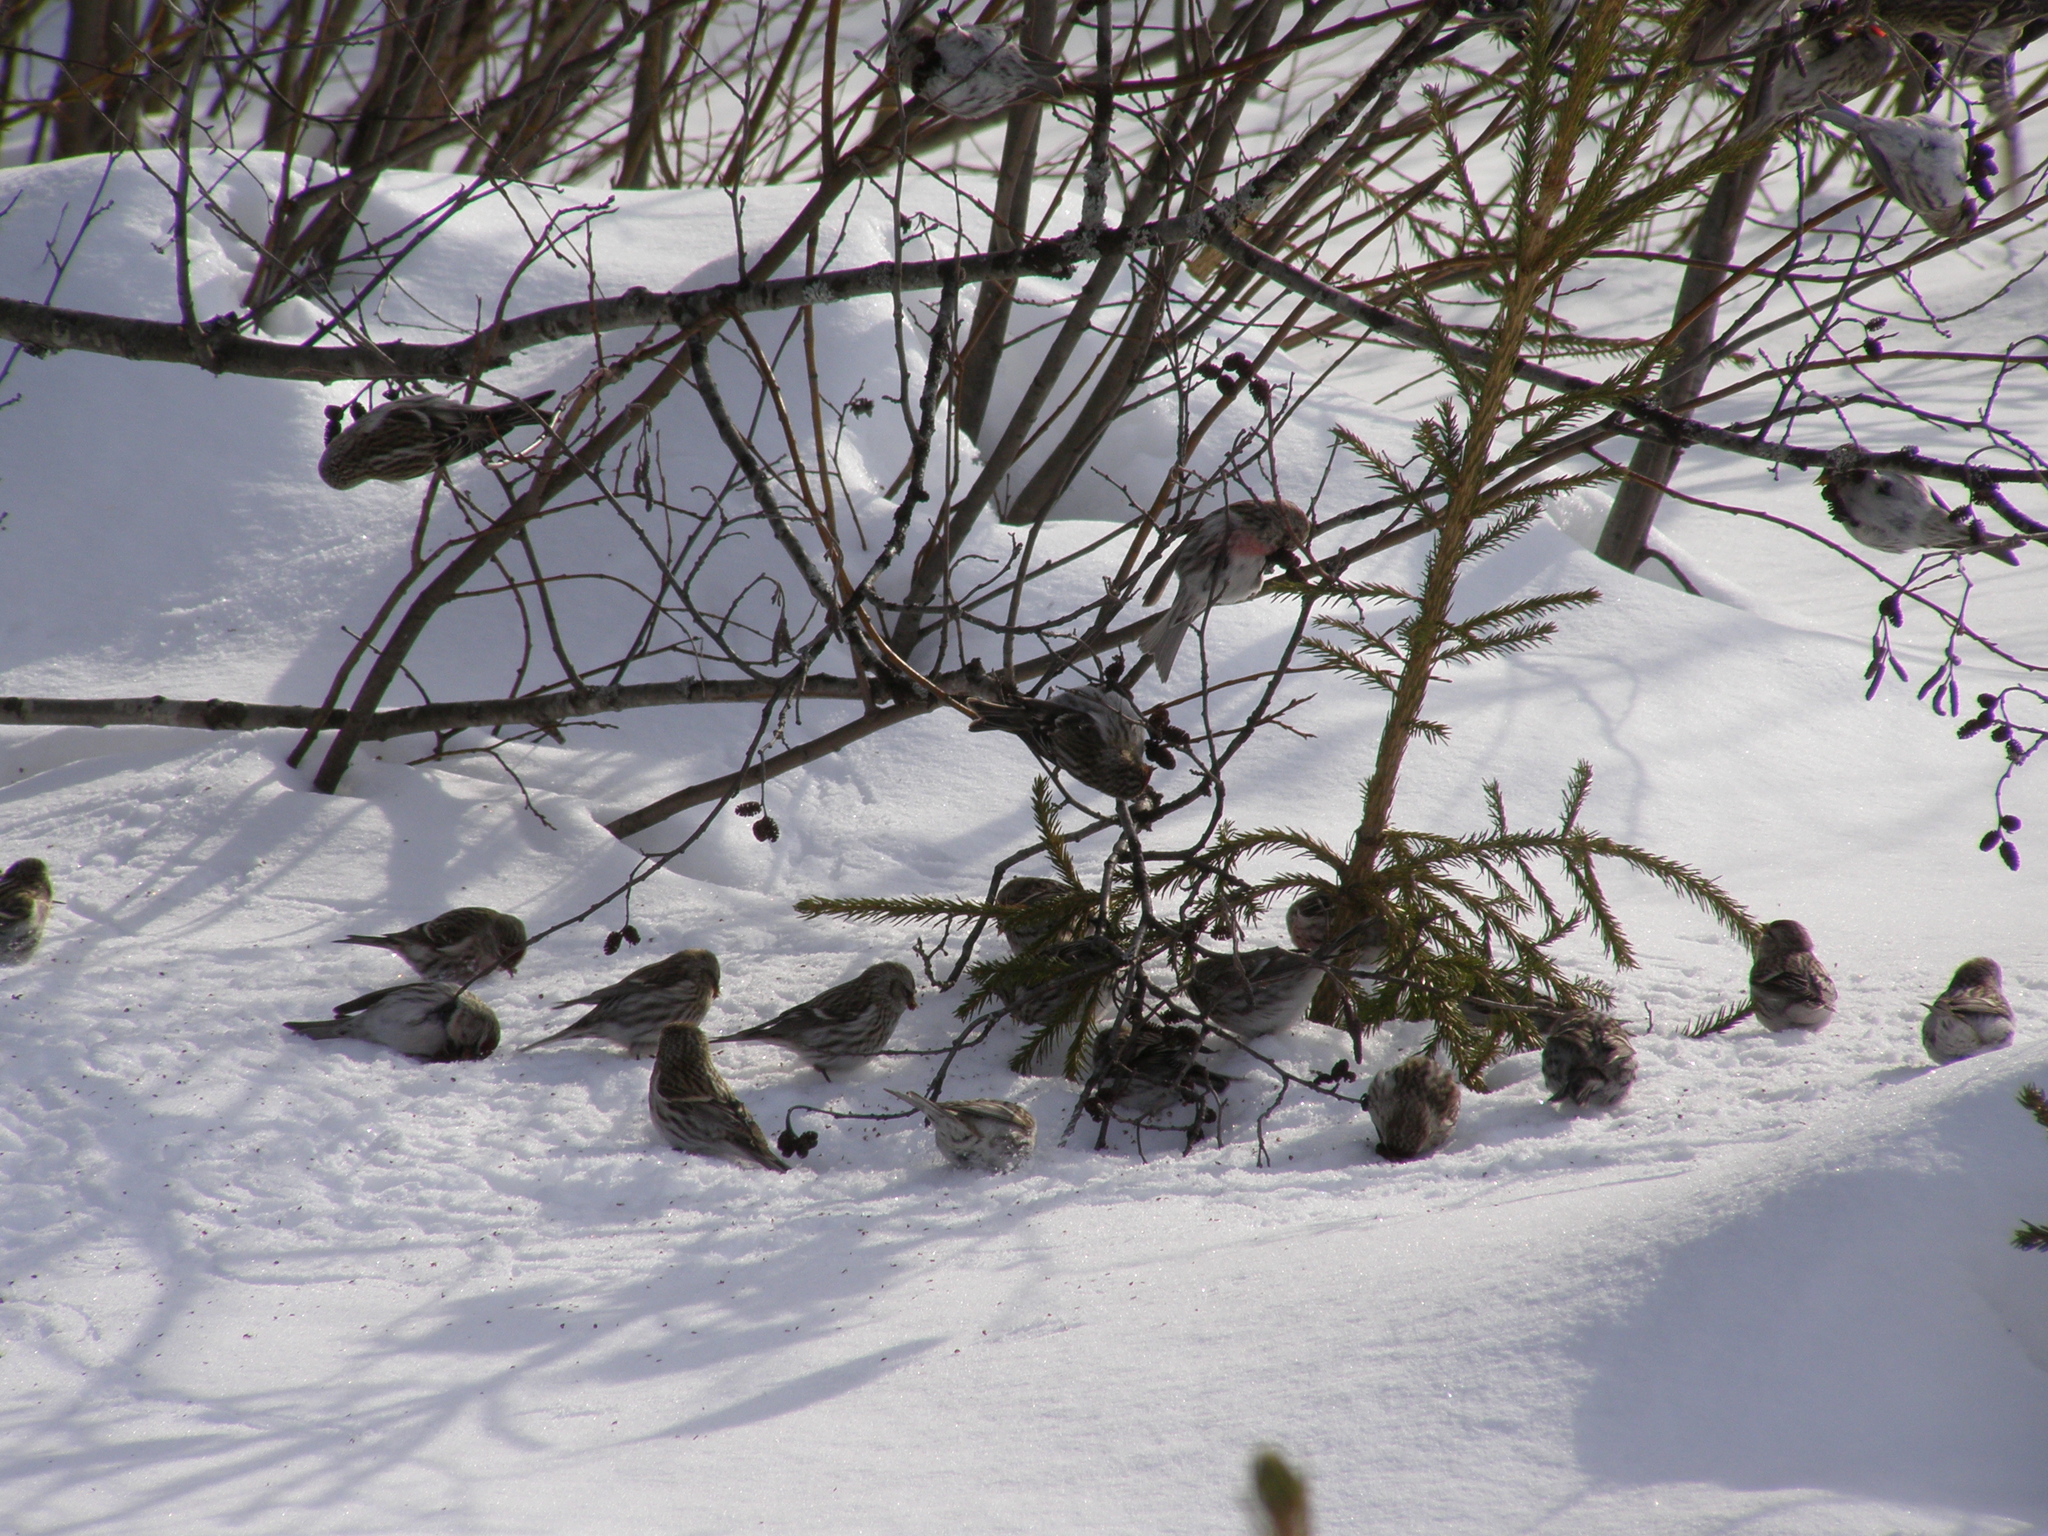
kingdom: Animalia
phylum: Chordata
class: Aves
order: Passeriformes
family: Fringillidae
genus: Acanthis
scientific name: Acanthis flammea
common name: Common redpoll
